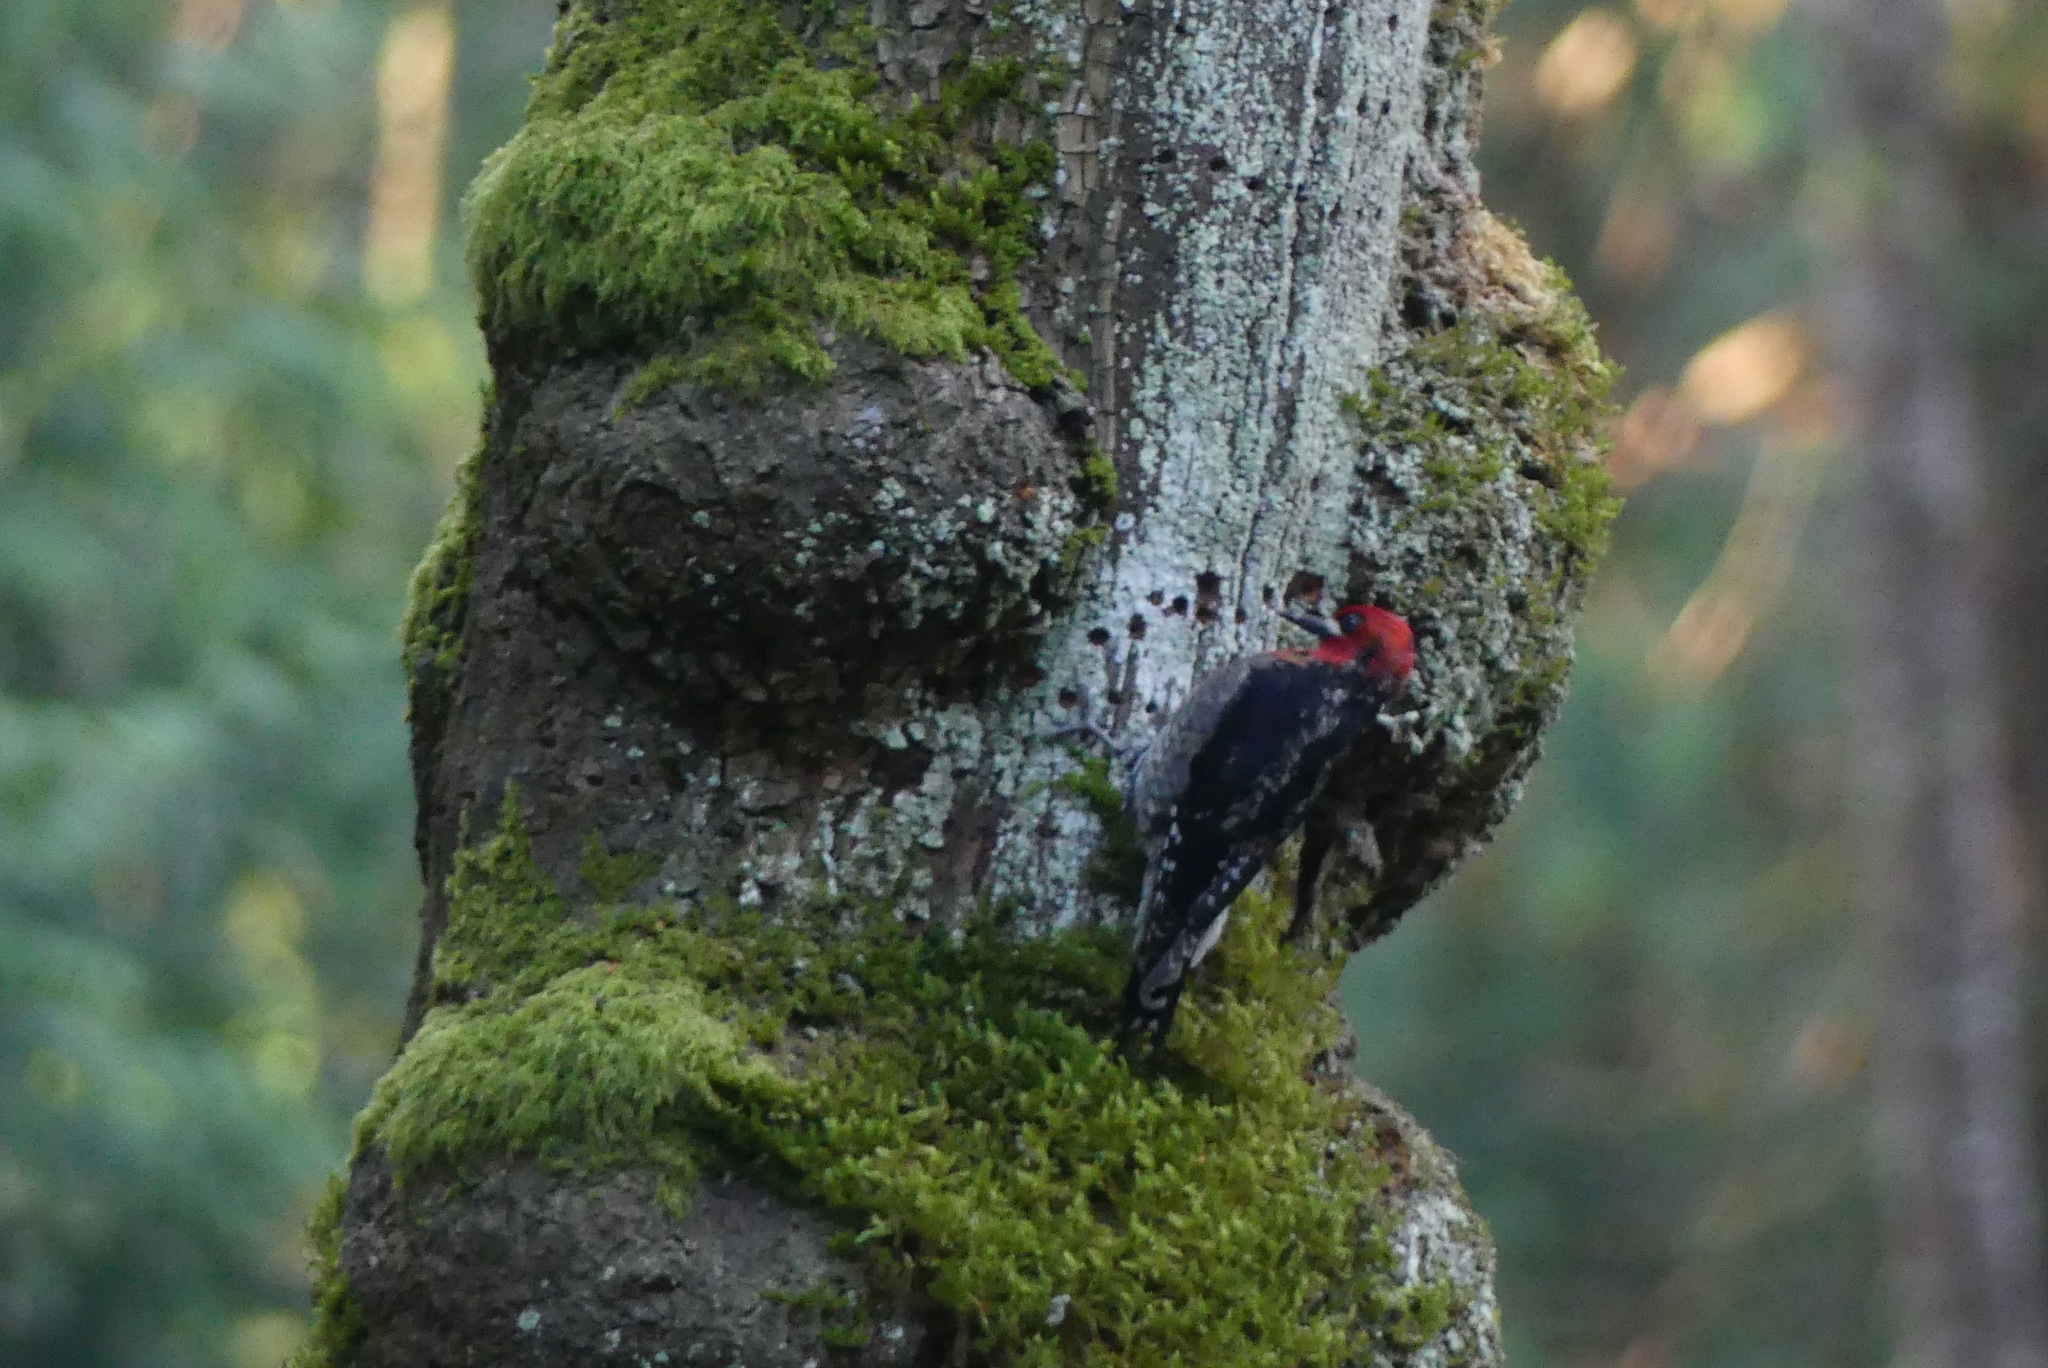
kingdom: Animalia
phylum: Chordata
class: Aves
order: Piciformes
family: Picidae
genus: Sphyrapicus
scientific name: Sphyrapicus ruber
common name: Red-breasted sapsucker
